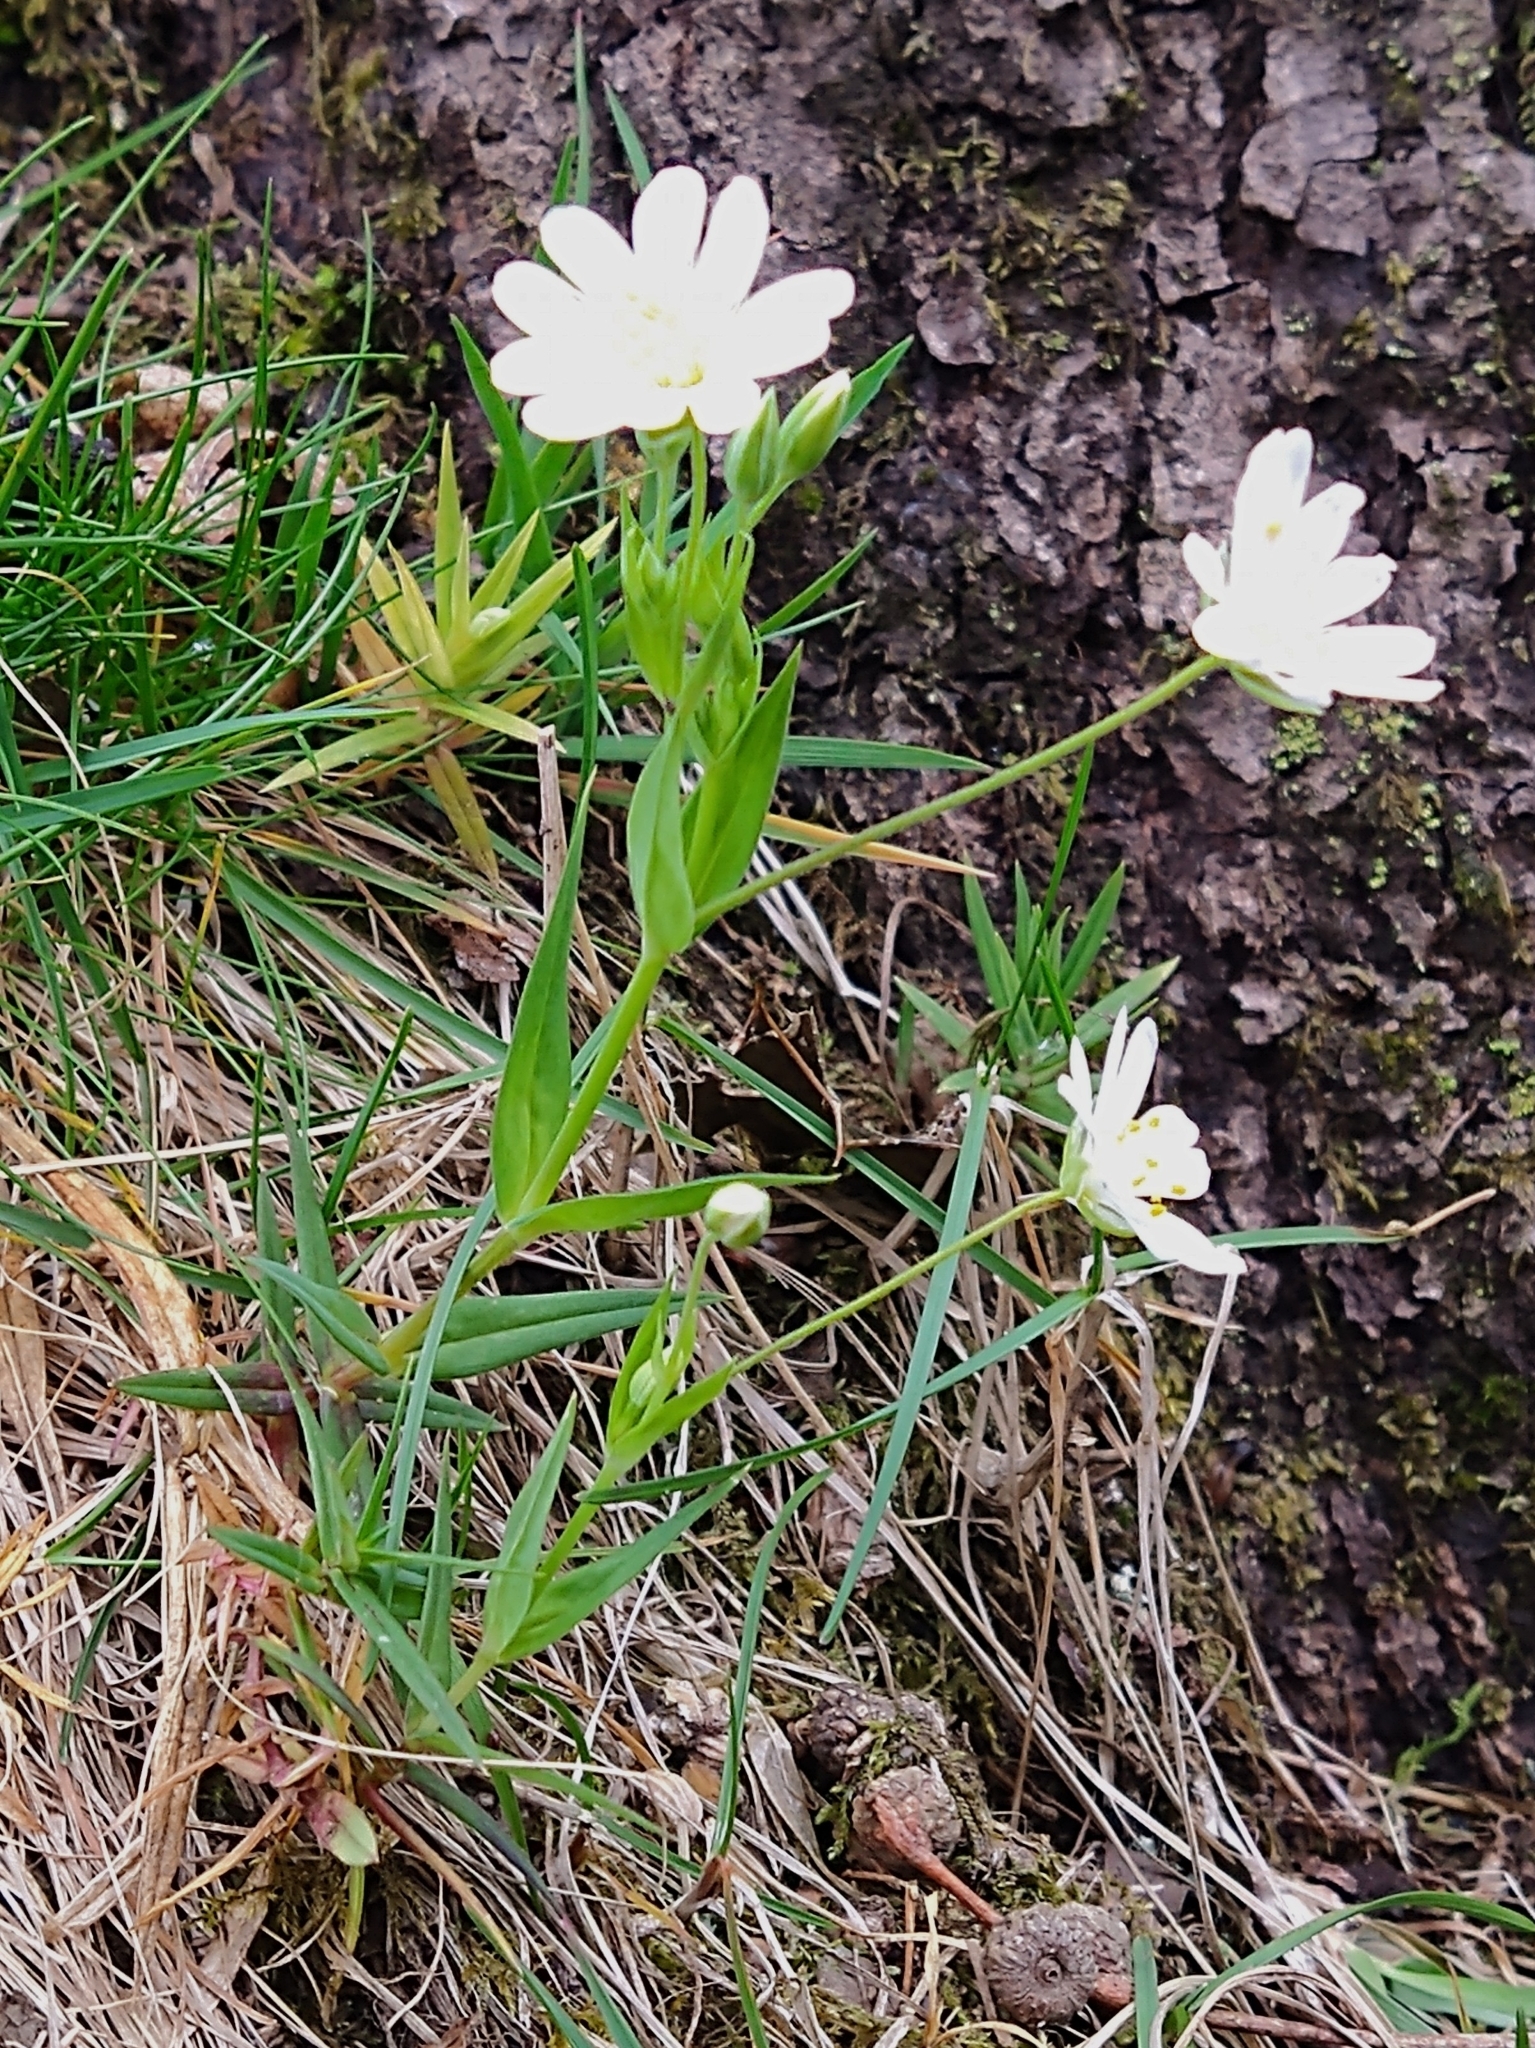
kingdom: Plantae
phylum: Tracheophyta
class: Magnoliopsida
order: Caryophyllales
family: Caryophyllaceae
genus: Rabelera
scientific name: Rabelera holostea
